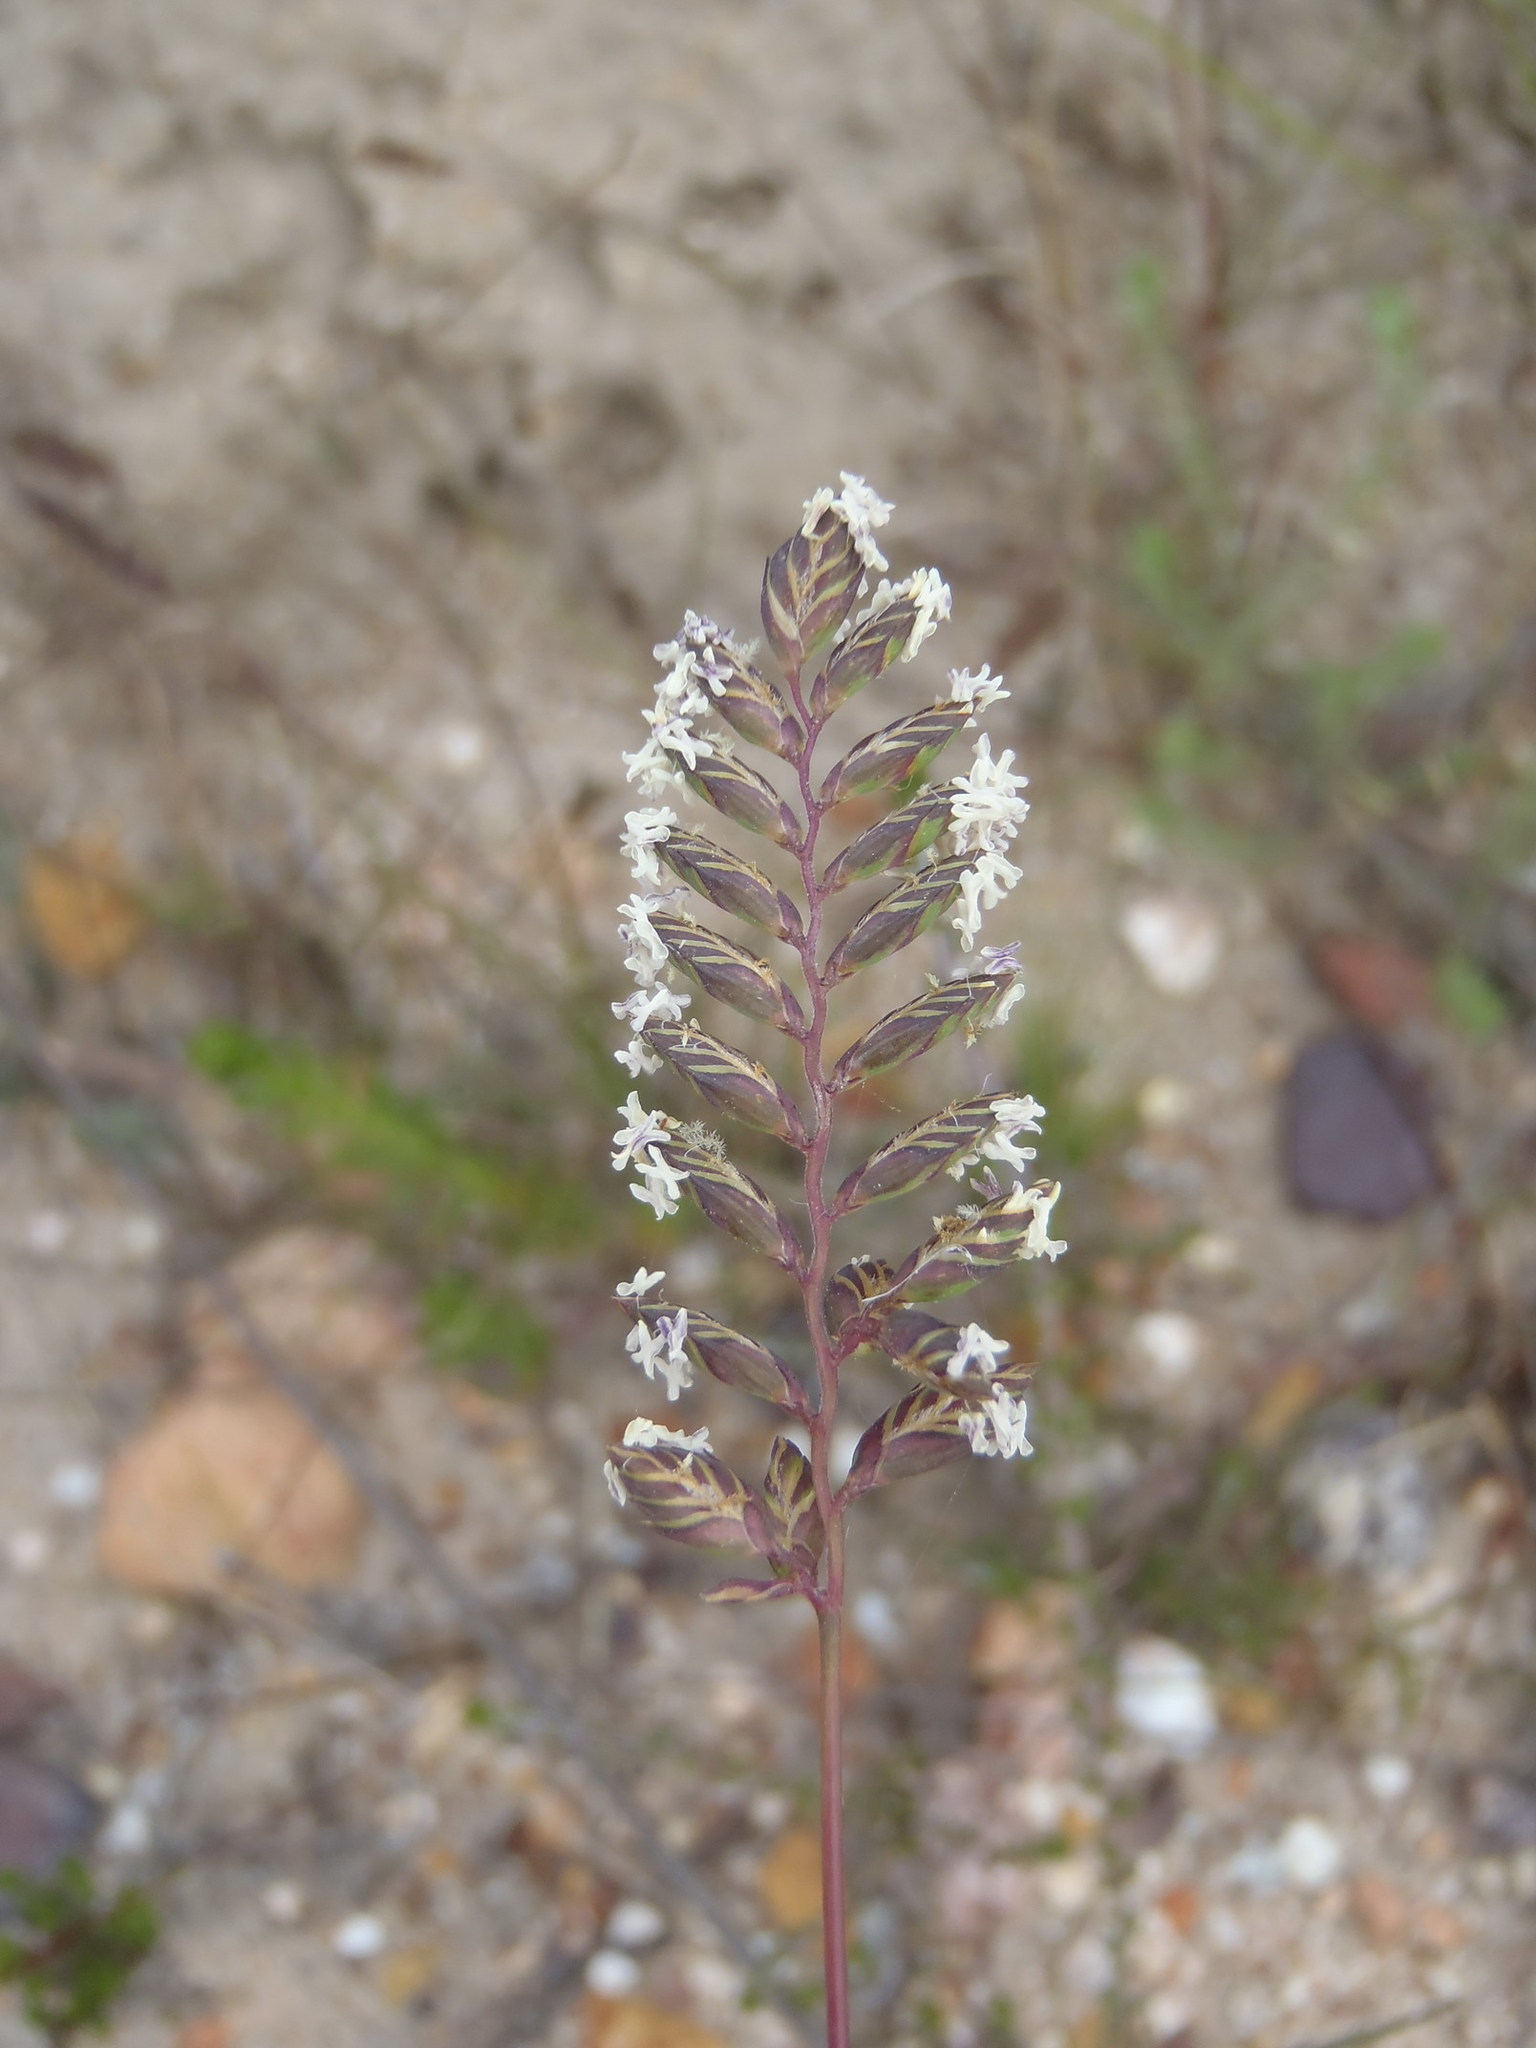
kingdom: Plantae
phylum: Tracheophyta
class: Liliopsida
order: Poales
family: Poaceae
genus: Tribolium
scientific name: Tribolium uniolae
